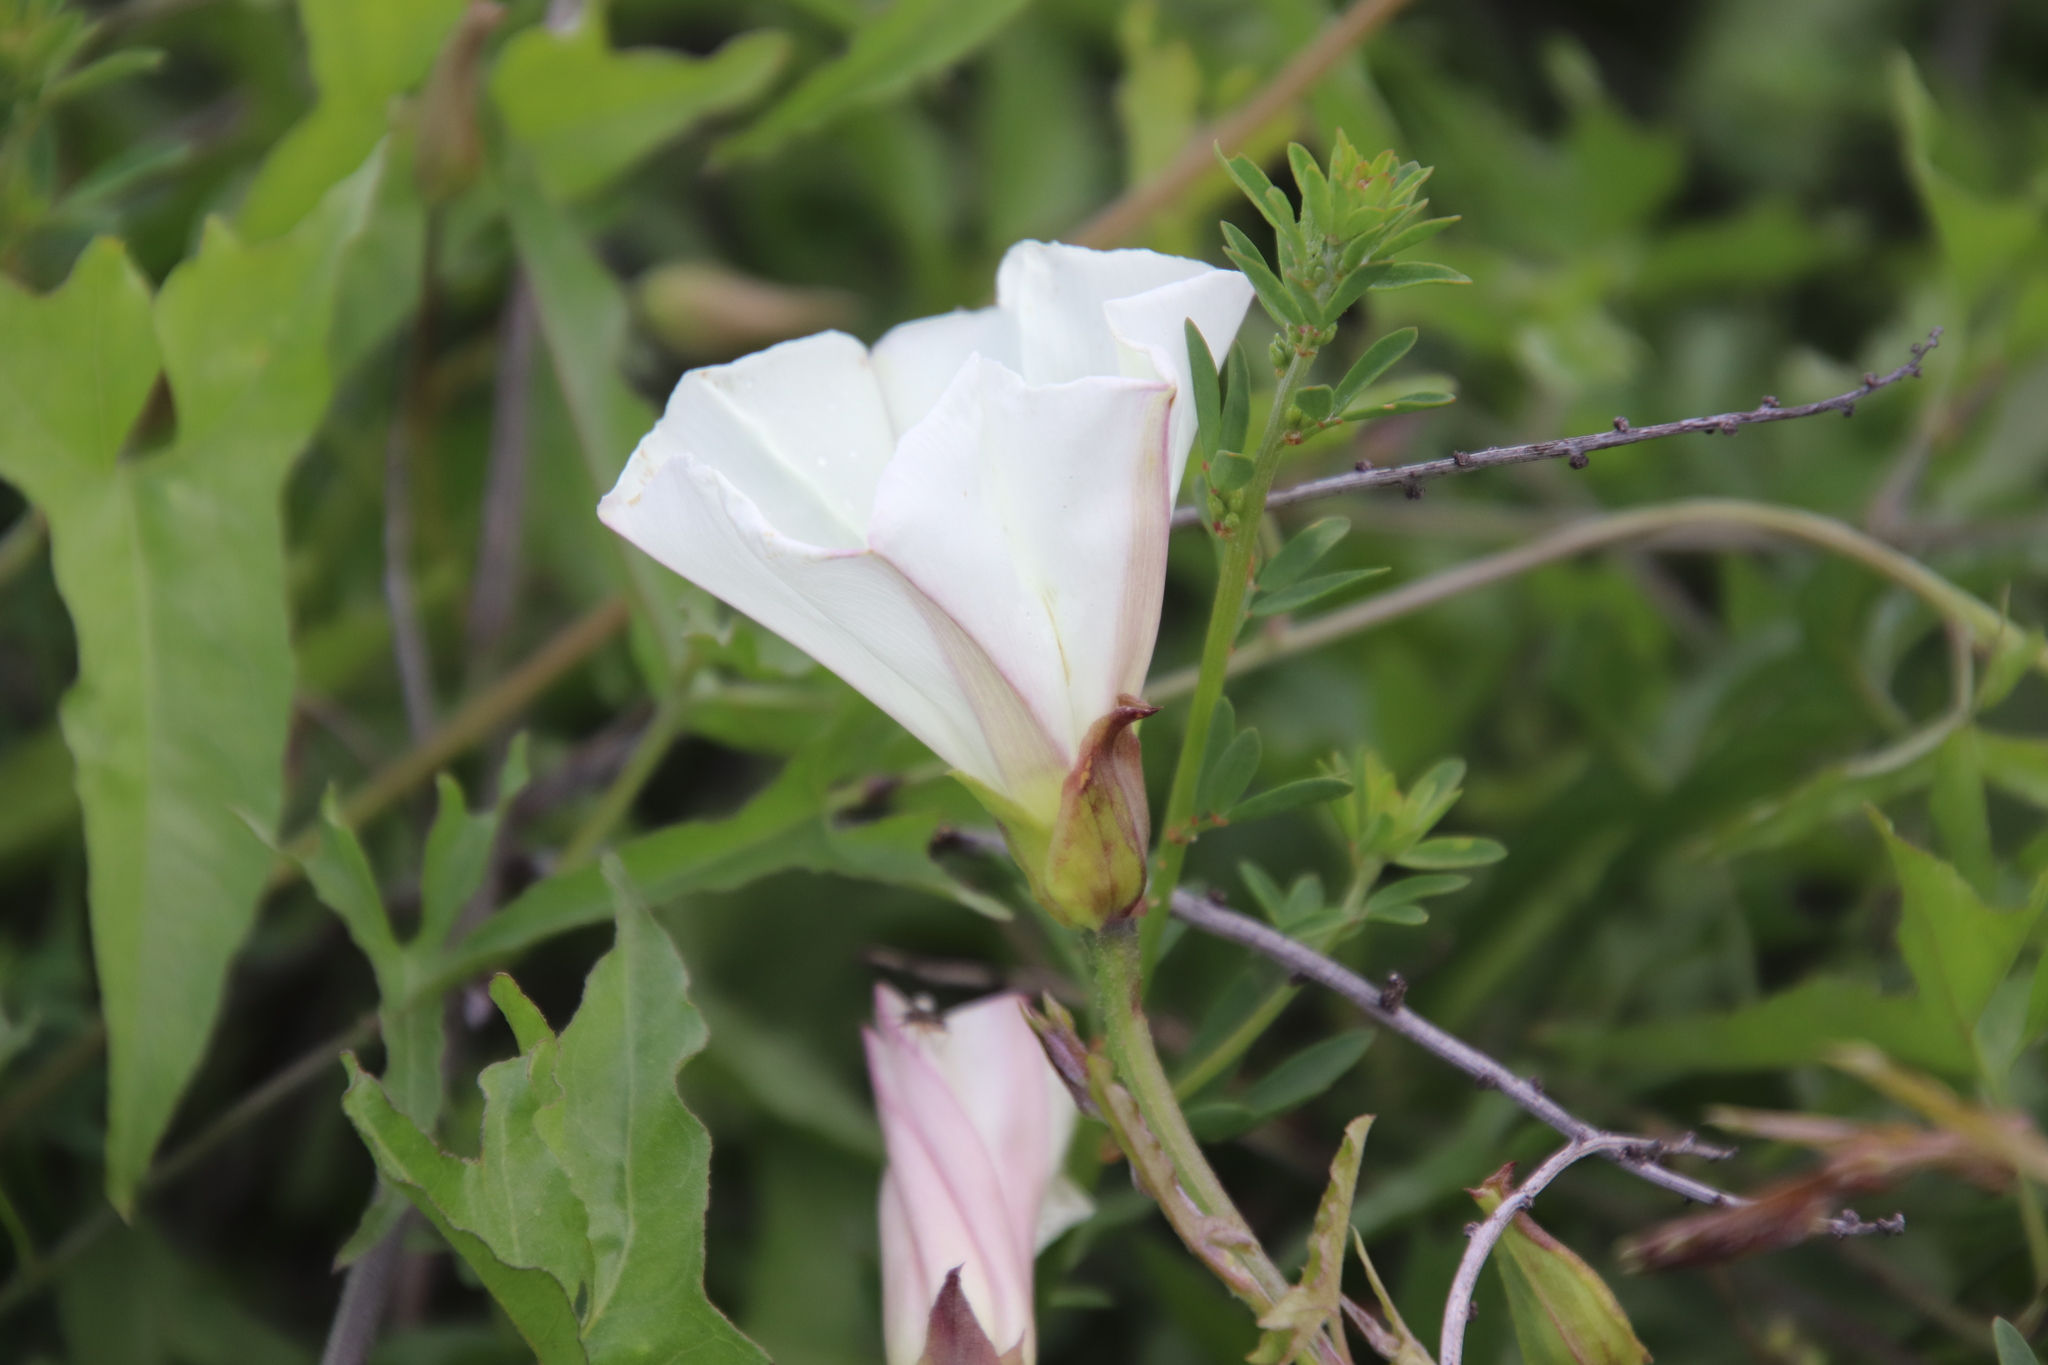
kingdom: Plantae
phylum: Tracheophyta
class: Magnoliopsida
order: Solanales
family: Convolvulaceae
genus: Calystegia
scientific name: Calystegia macrostegia
